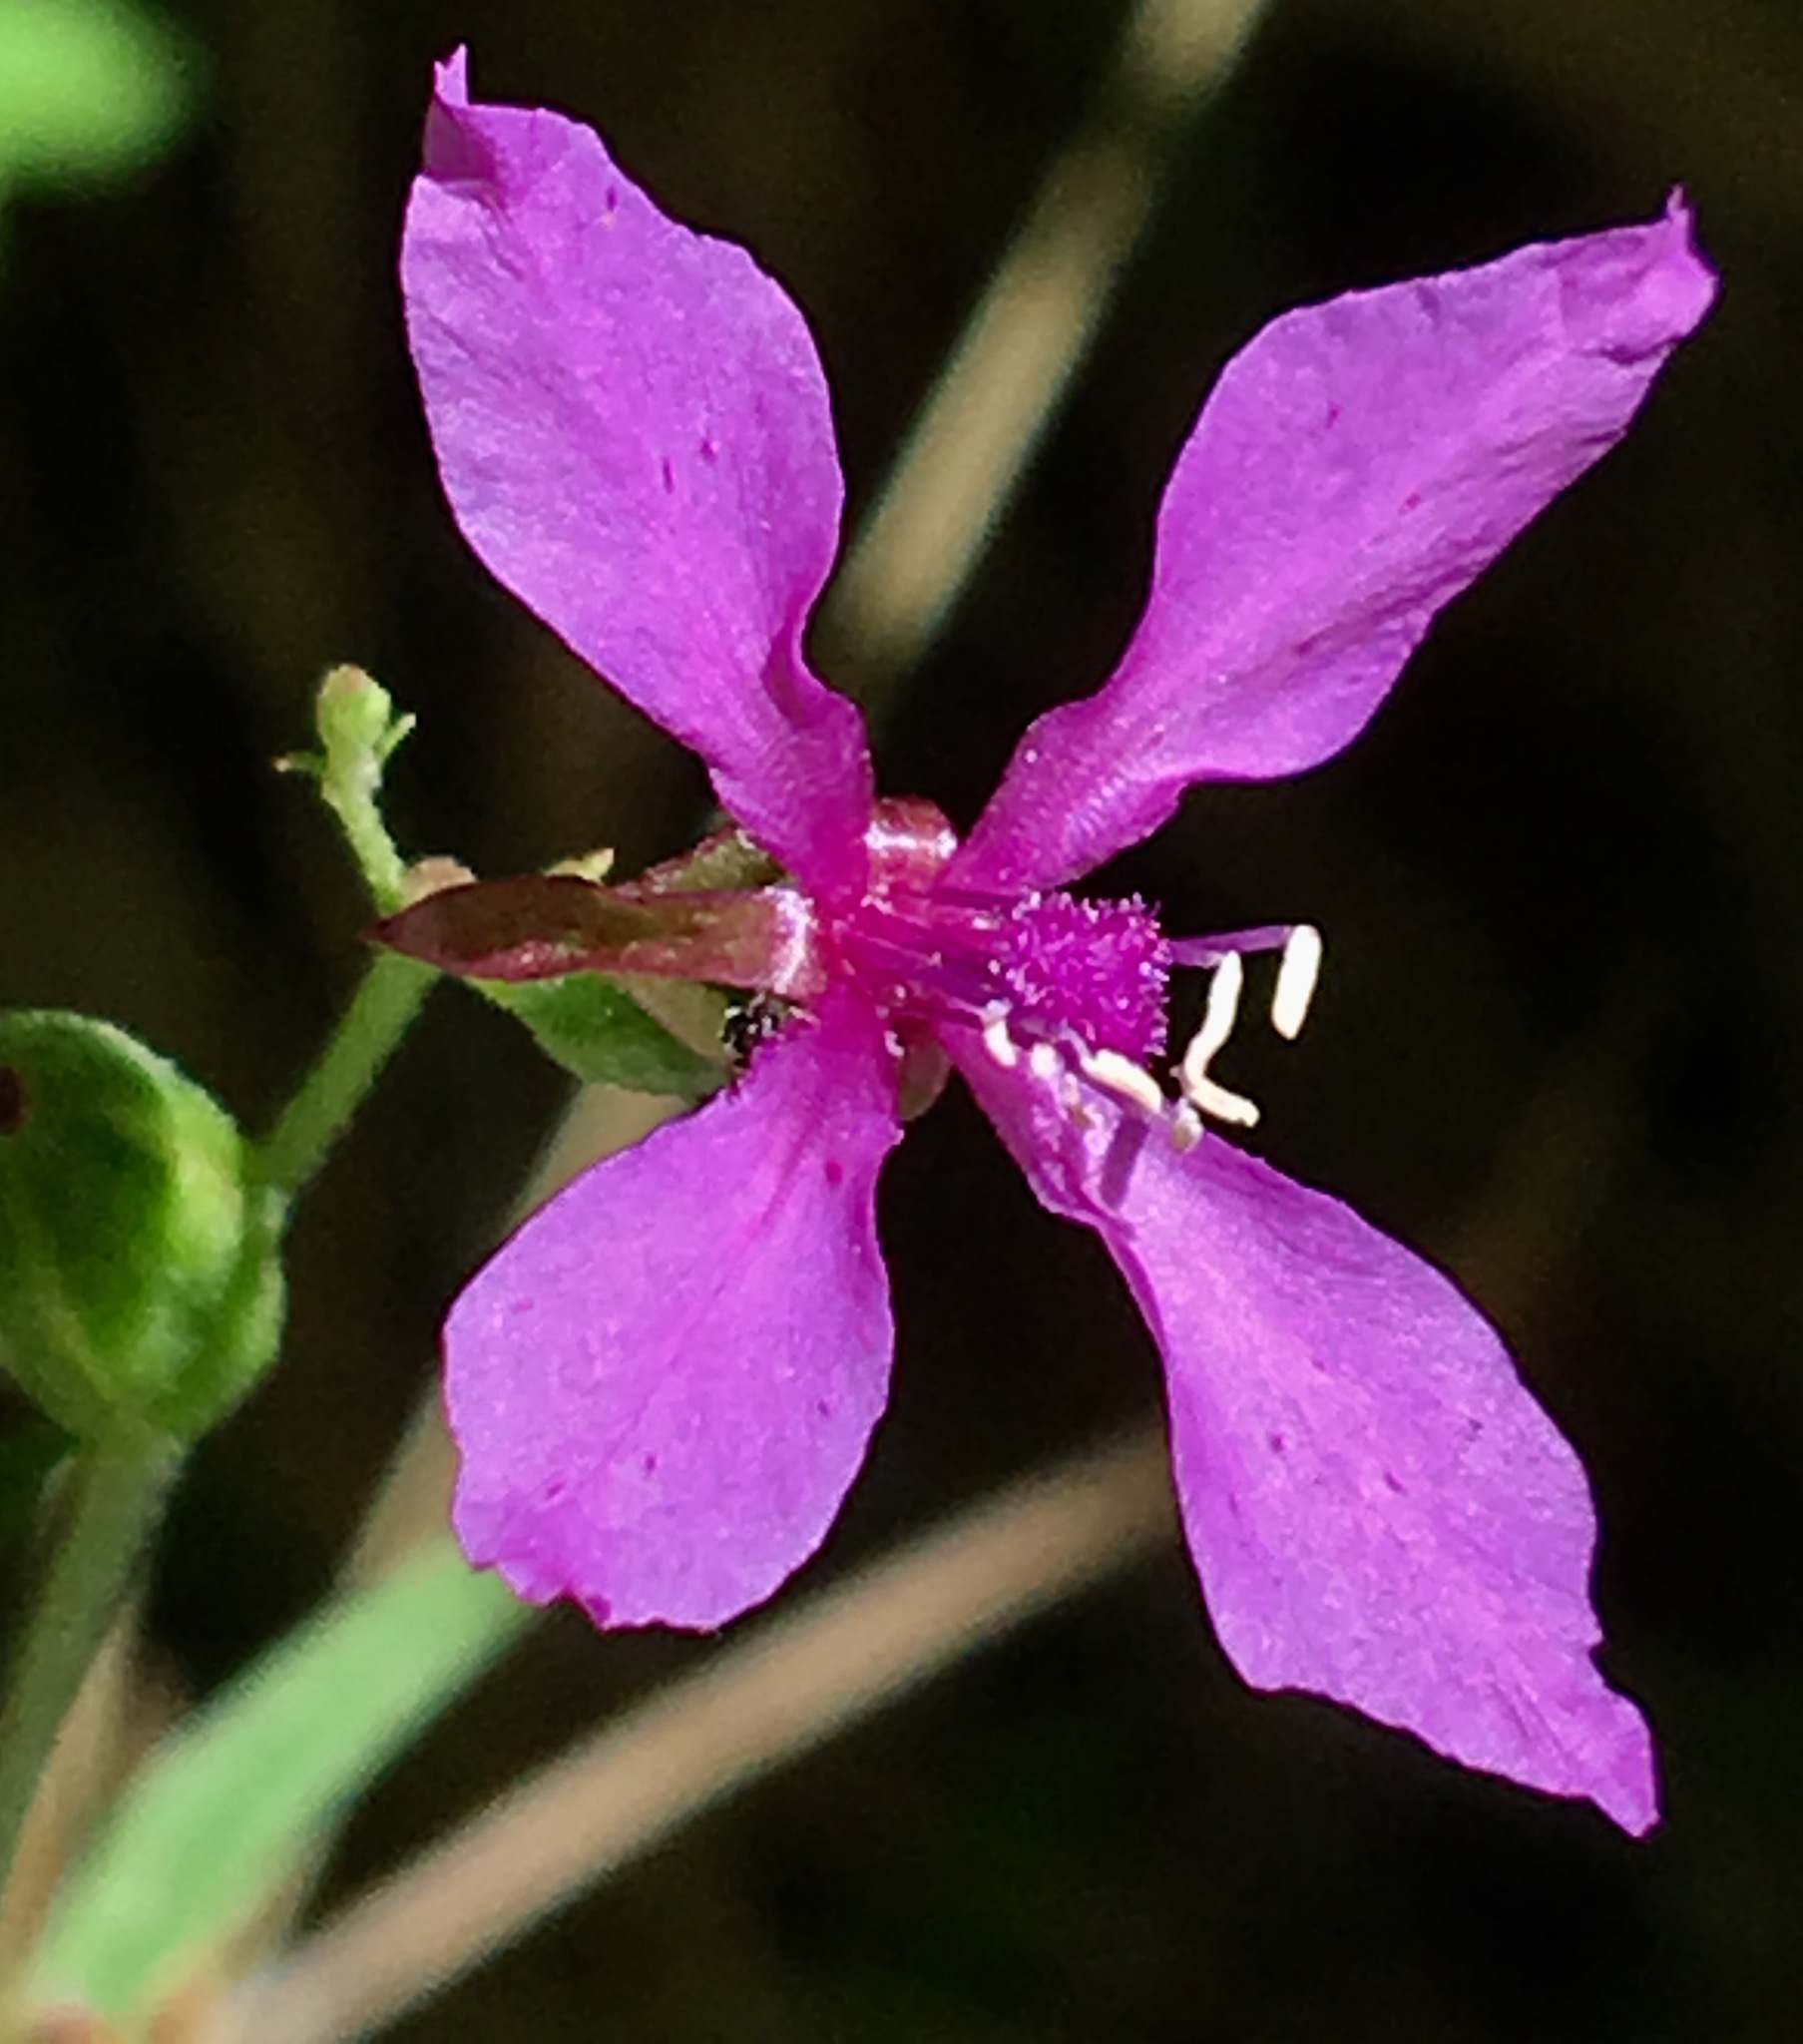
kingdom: Plantae
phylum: Tracheophyta
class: Magnoliopsida
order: Myrtales
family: Onagraceae
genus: Clarkia
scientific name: Clarkia rhomboidea
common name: Broadleaf clarkia
